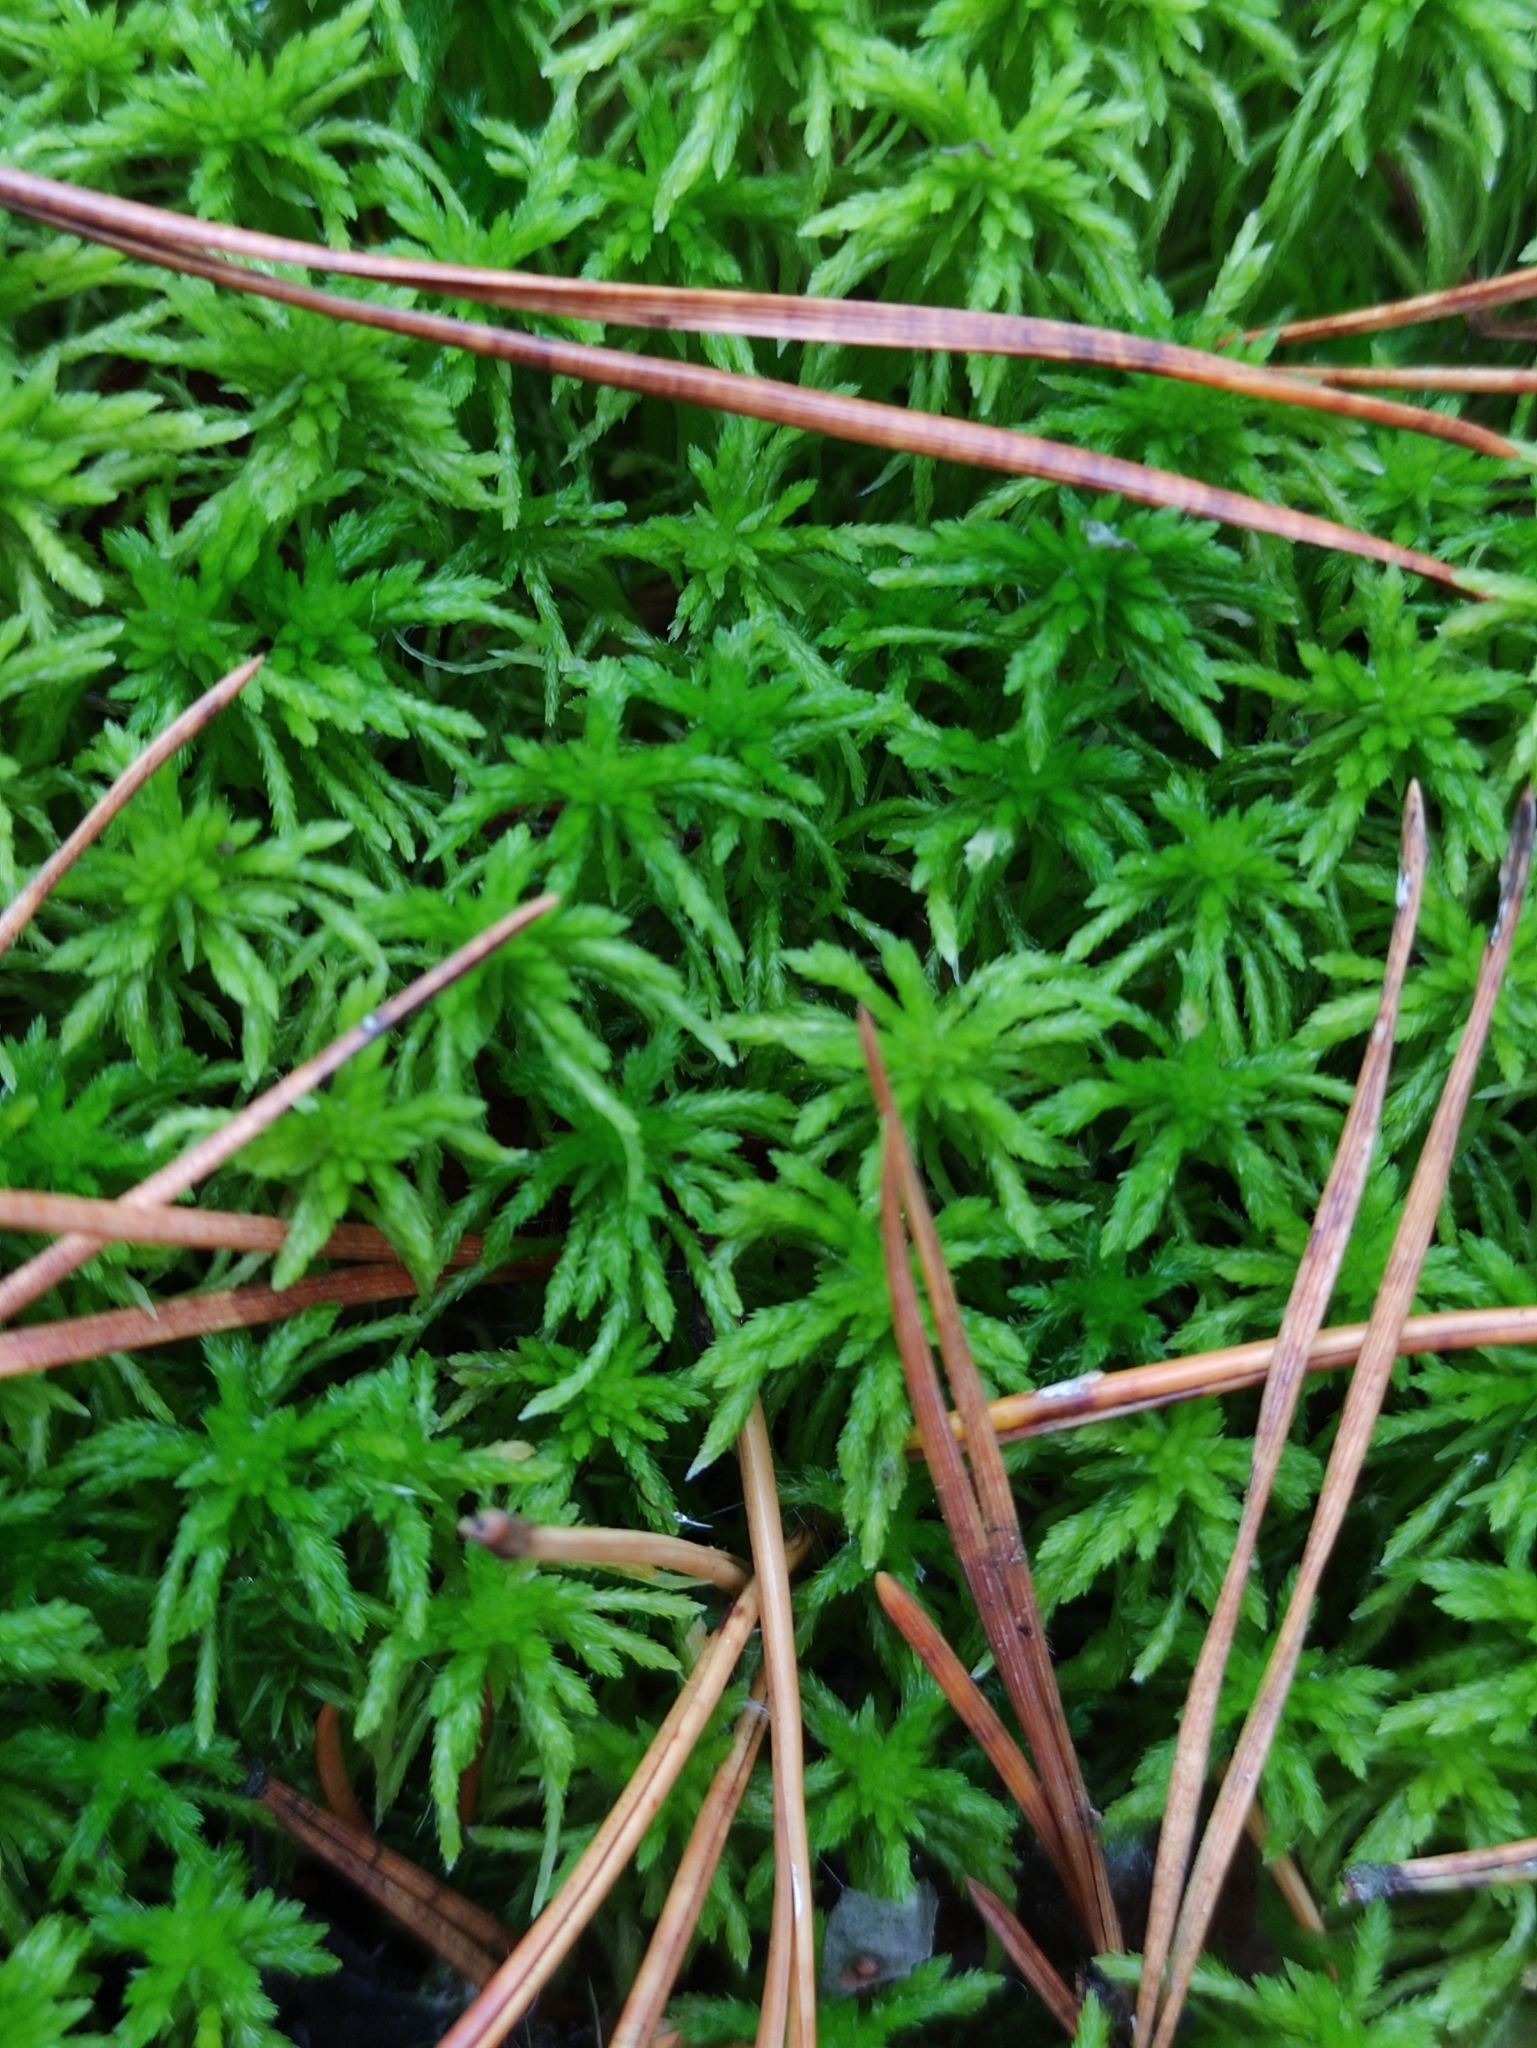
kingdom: Plantae
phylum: Bryophyta
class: Sphagnopsida
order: Sphagnales
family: Sphagnaceae
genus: Sphagnum
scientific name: Sphagnum girgensohnii
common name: Girgensohn's peat moss
